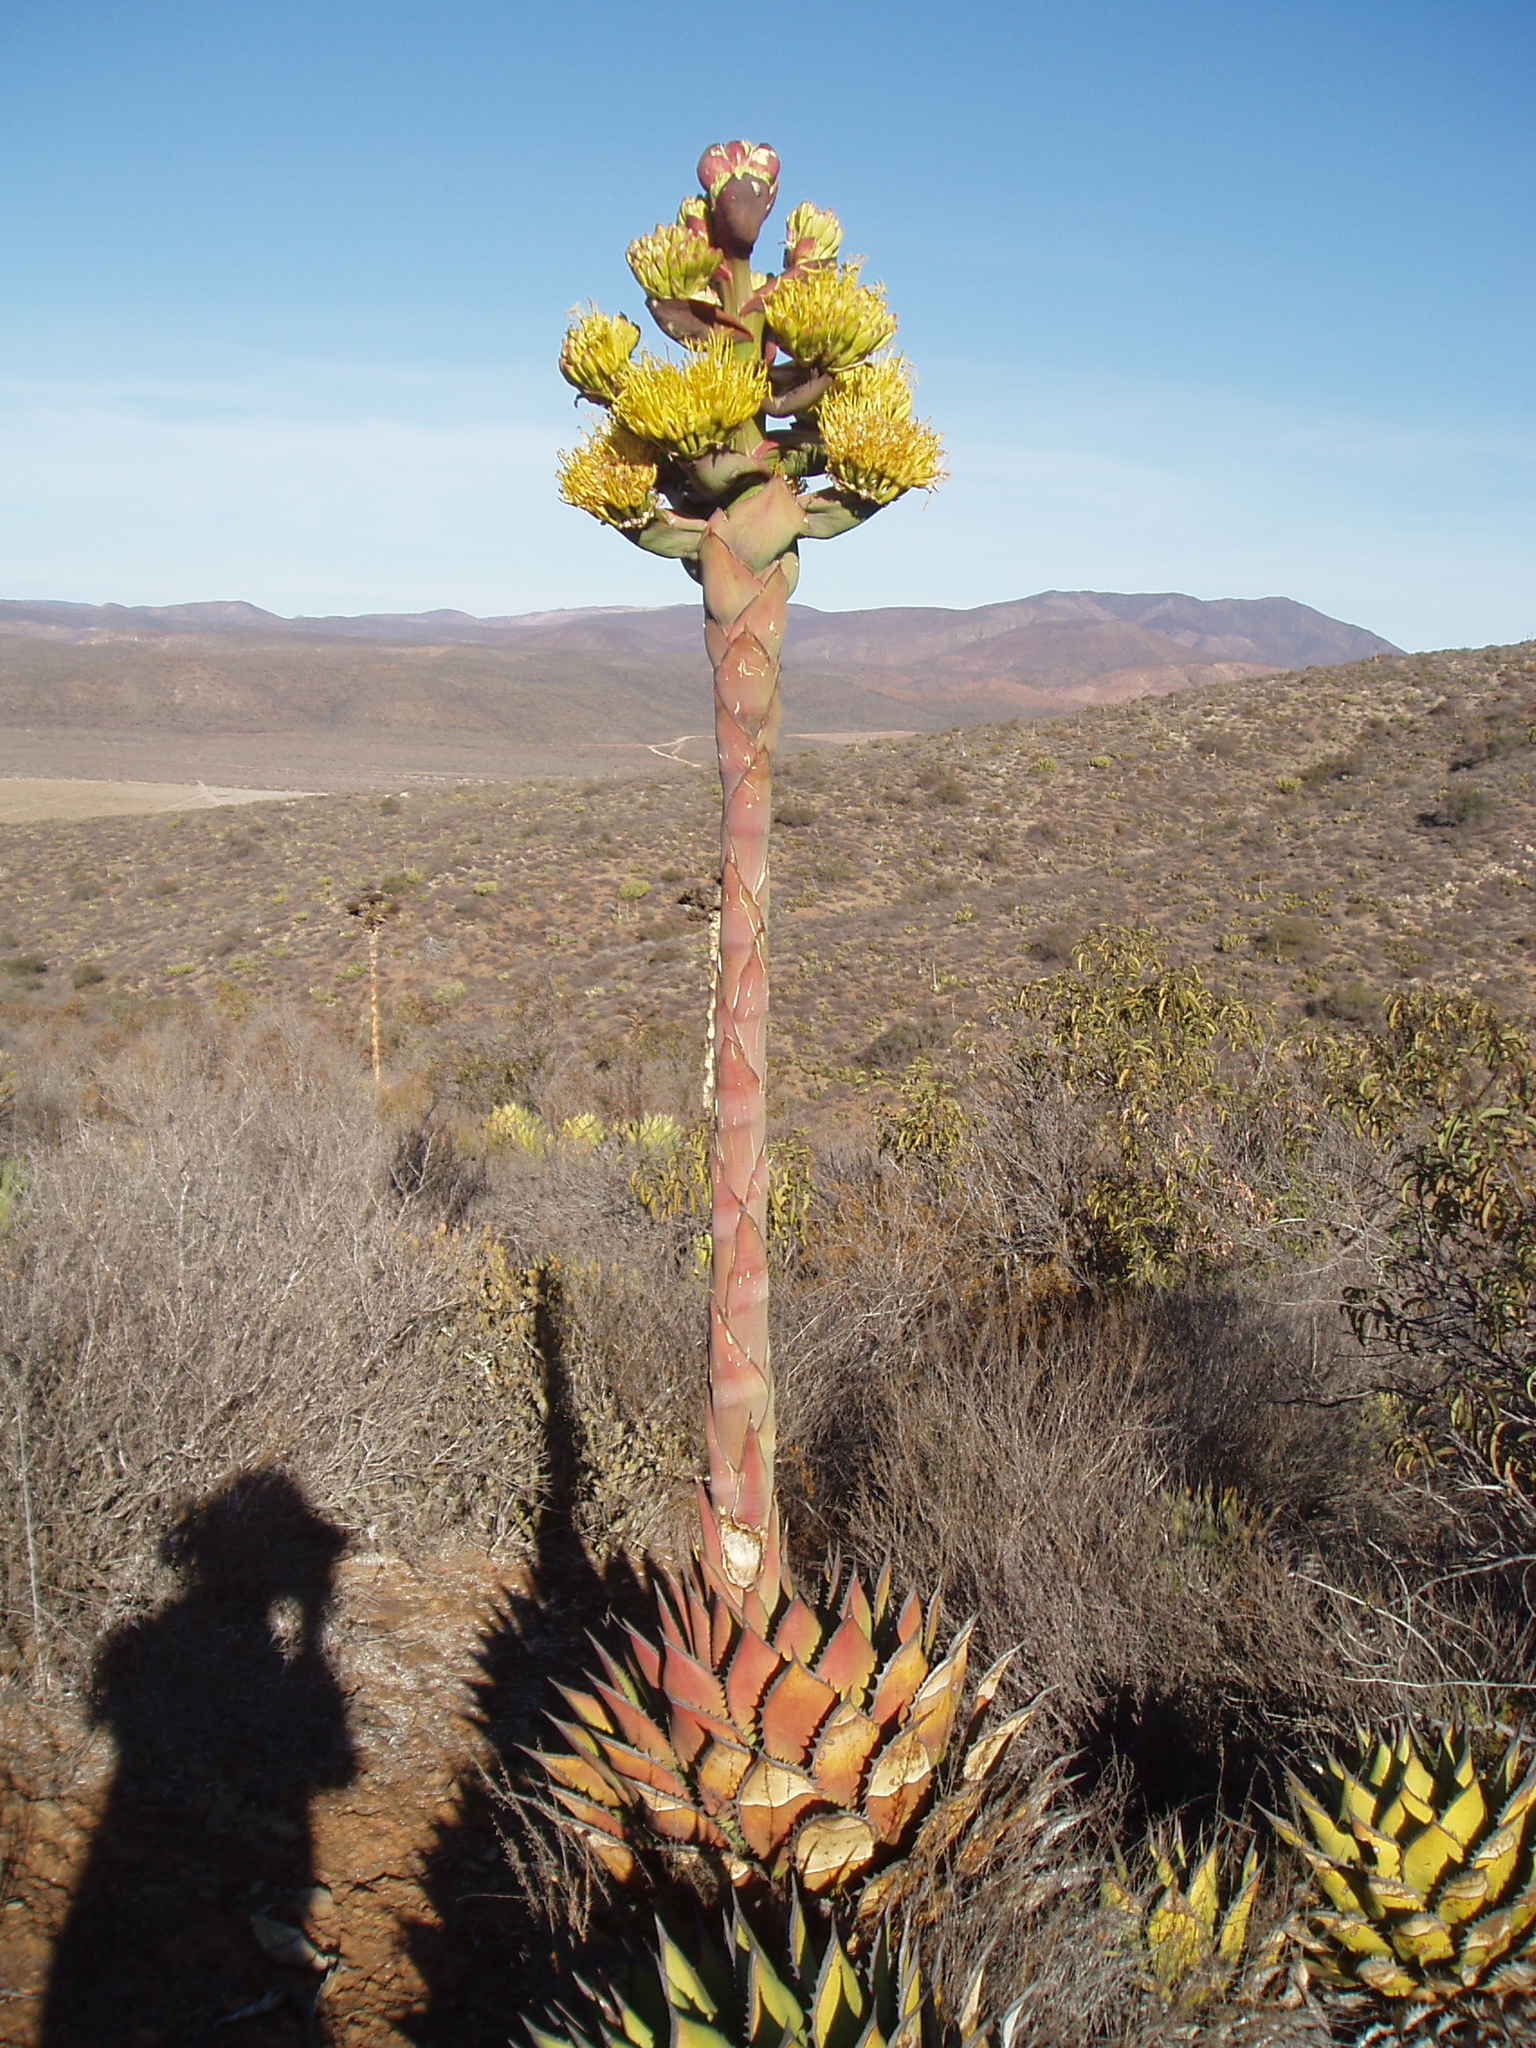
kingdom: Plantae
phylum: Tracheophyta
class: Liliopsida
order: Asparagales
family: Asparagaceae
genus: Agave
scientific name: Agave shawii
